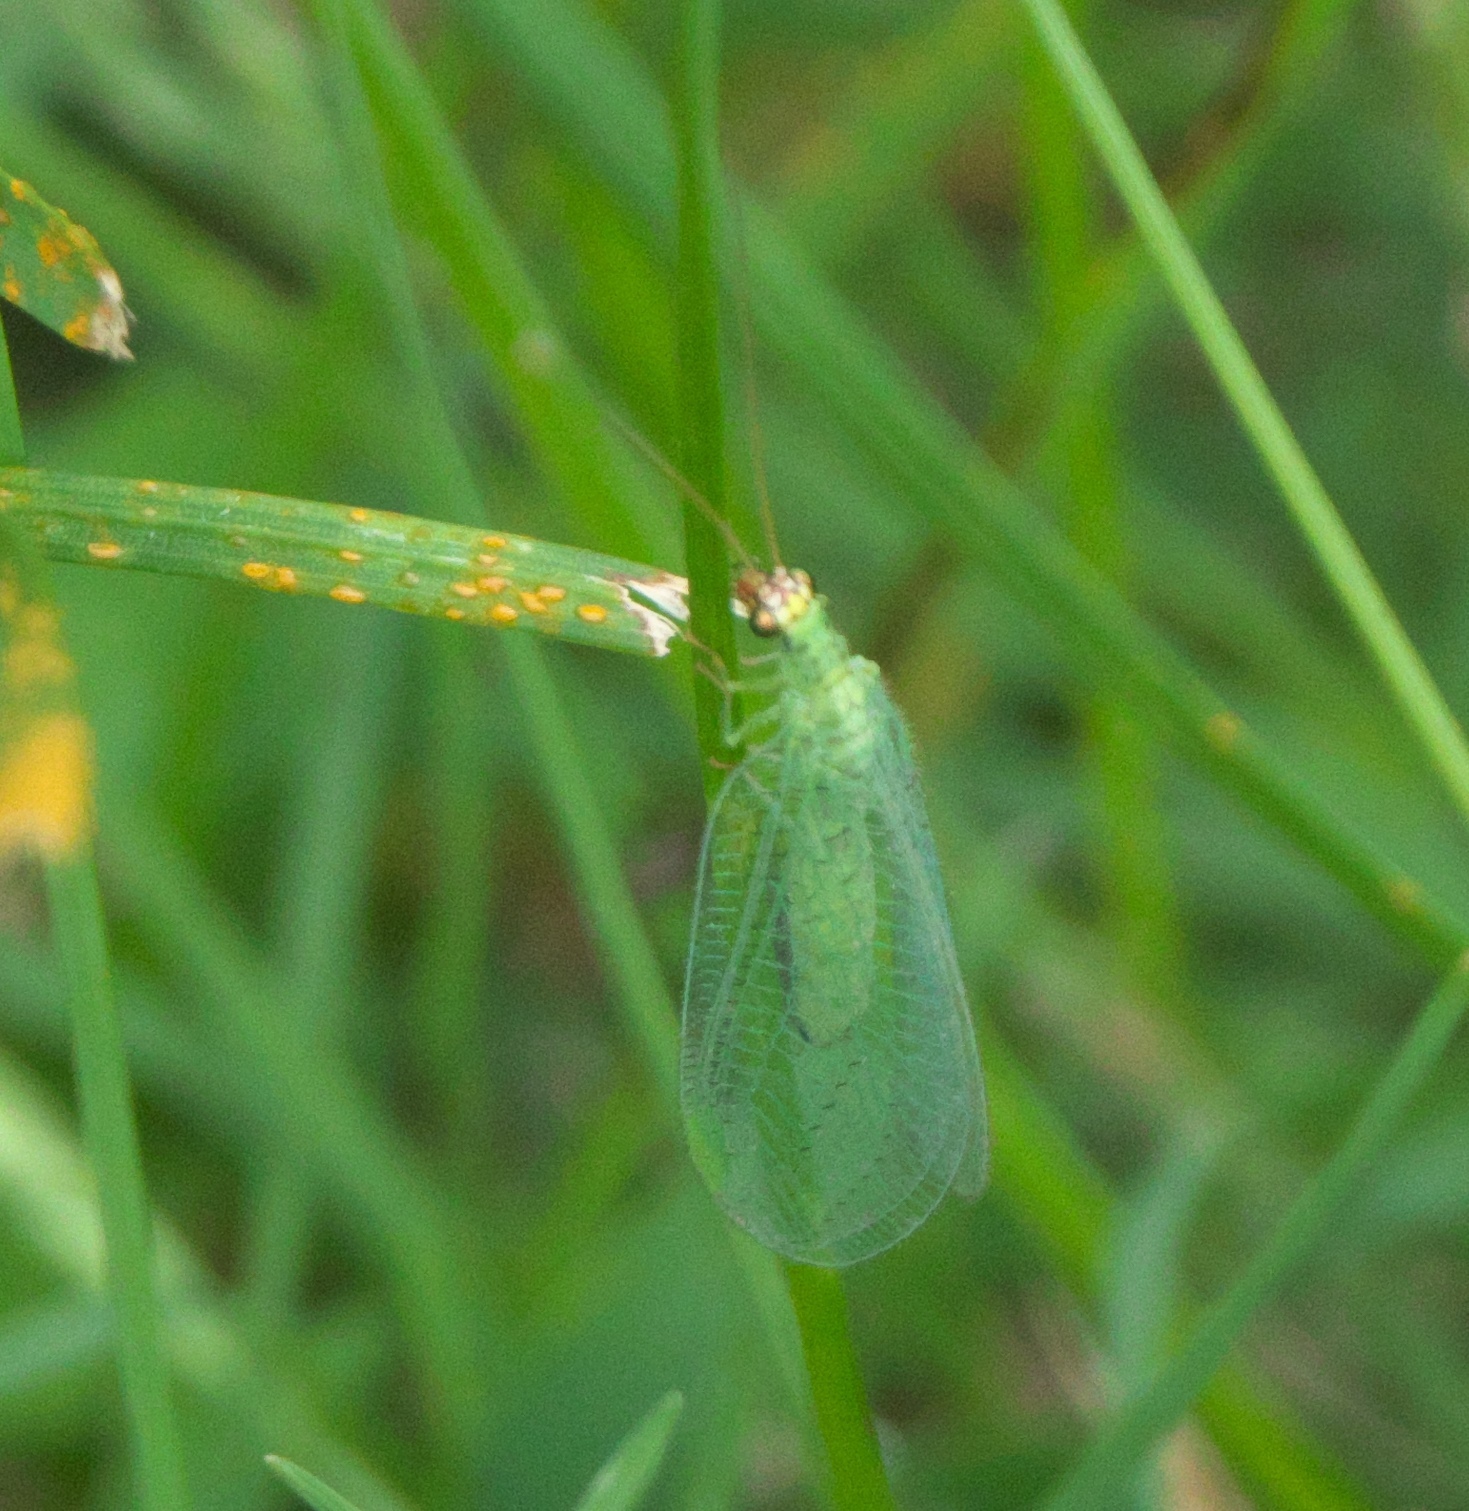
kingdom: Animalia
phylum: Arthropoda
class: Insecta
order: Neuroptera
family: Chrysopidae
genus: Chrysopa
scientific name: Chrysopa oculata
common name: Golden-eyed lacewing
